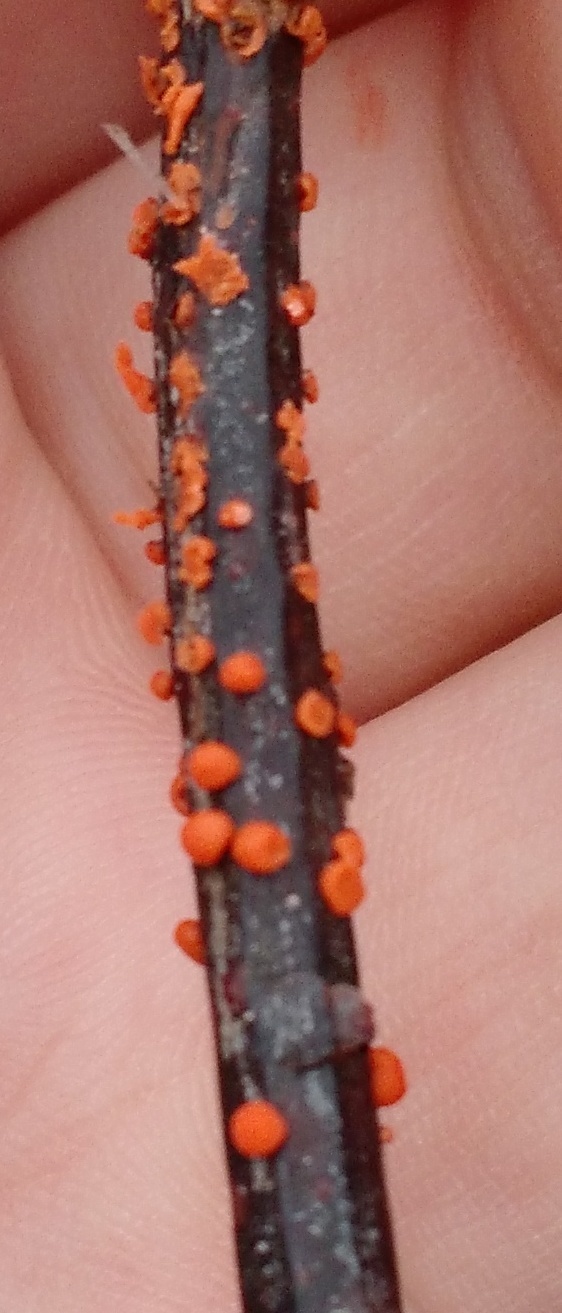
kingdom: Fungi
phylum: Ascomycota
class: Sordariomycetes
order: Hypocreales
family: Nectriaceae
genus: Nectria
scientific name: Nectria cinnabarina
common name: Coral spot
